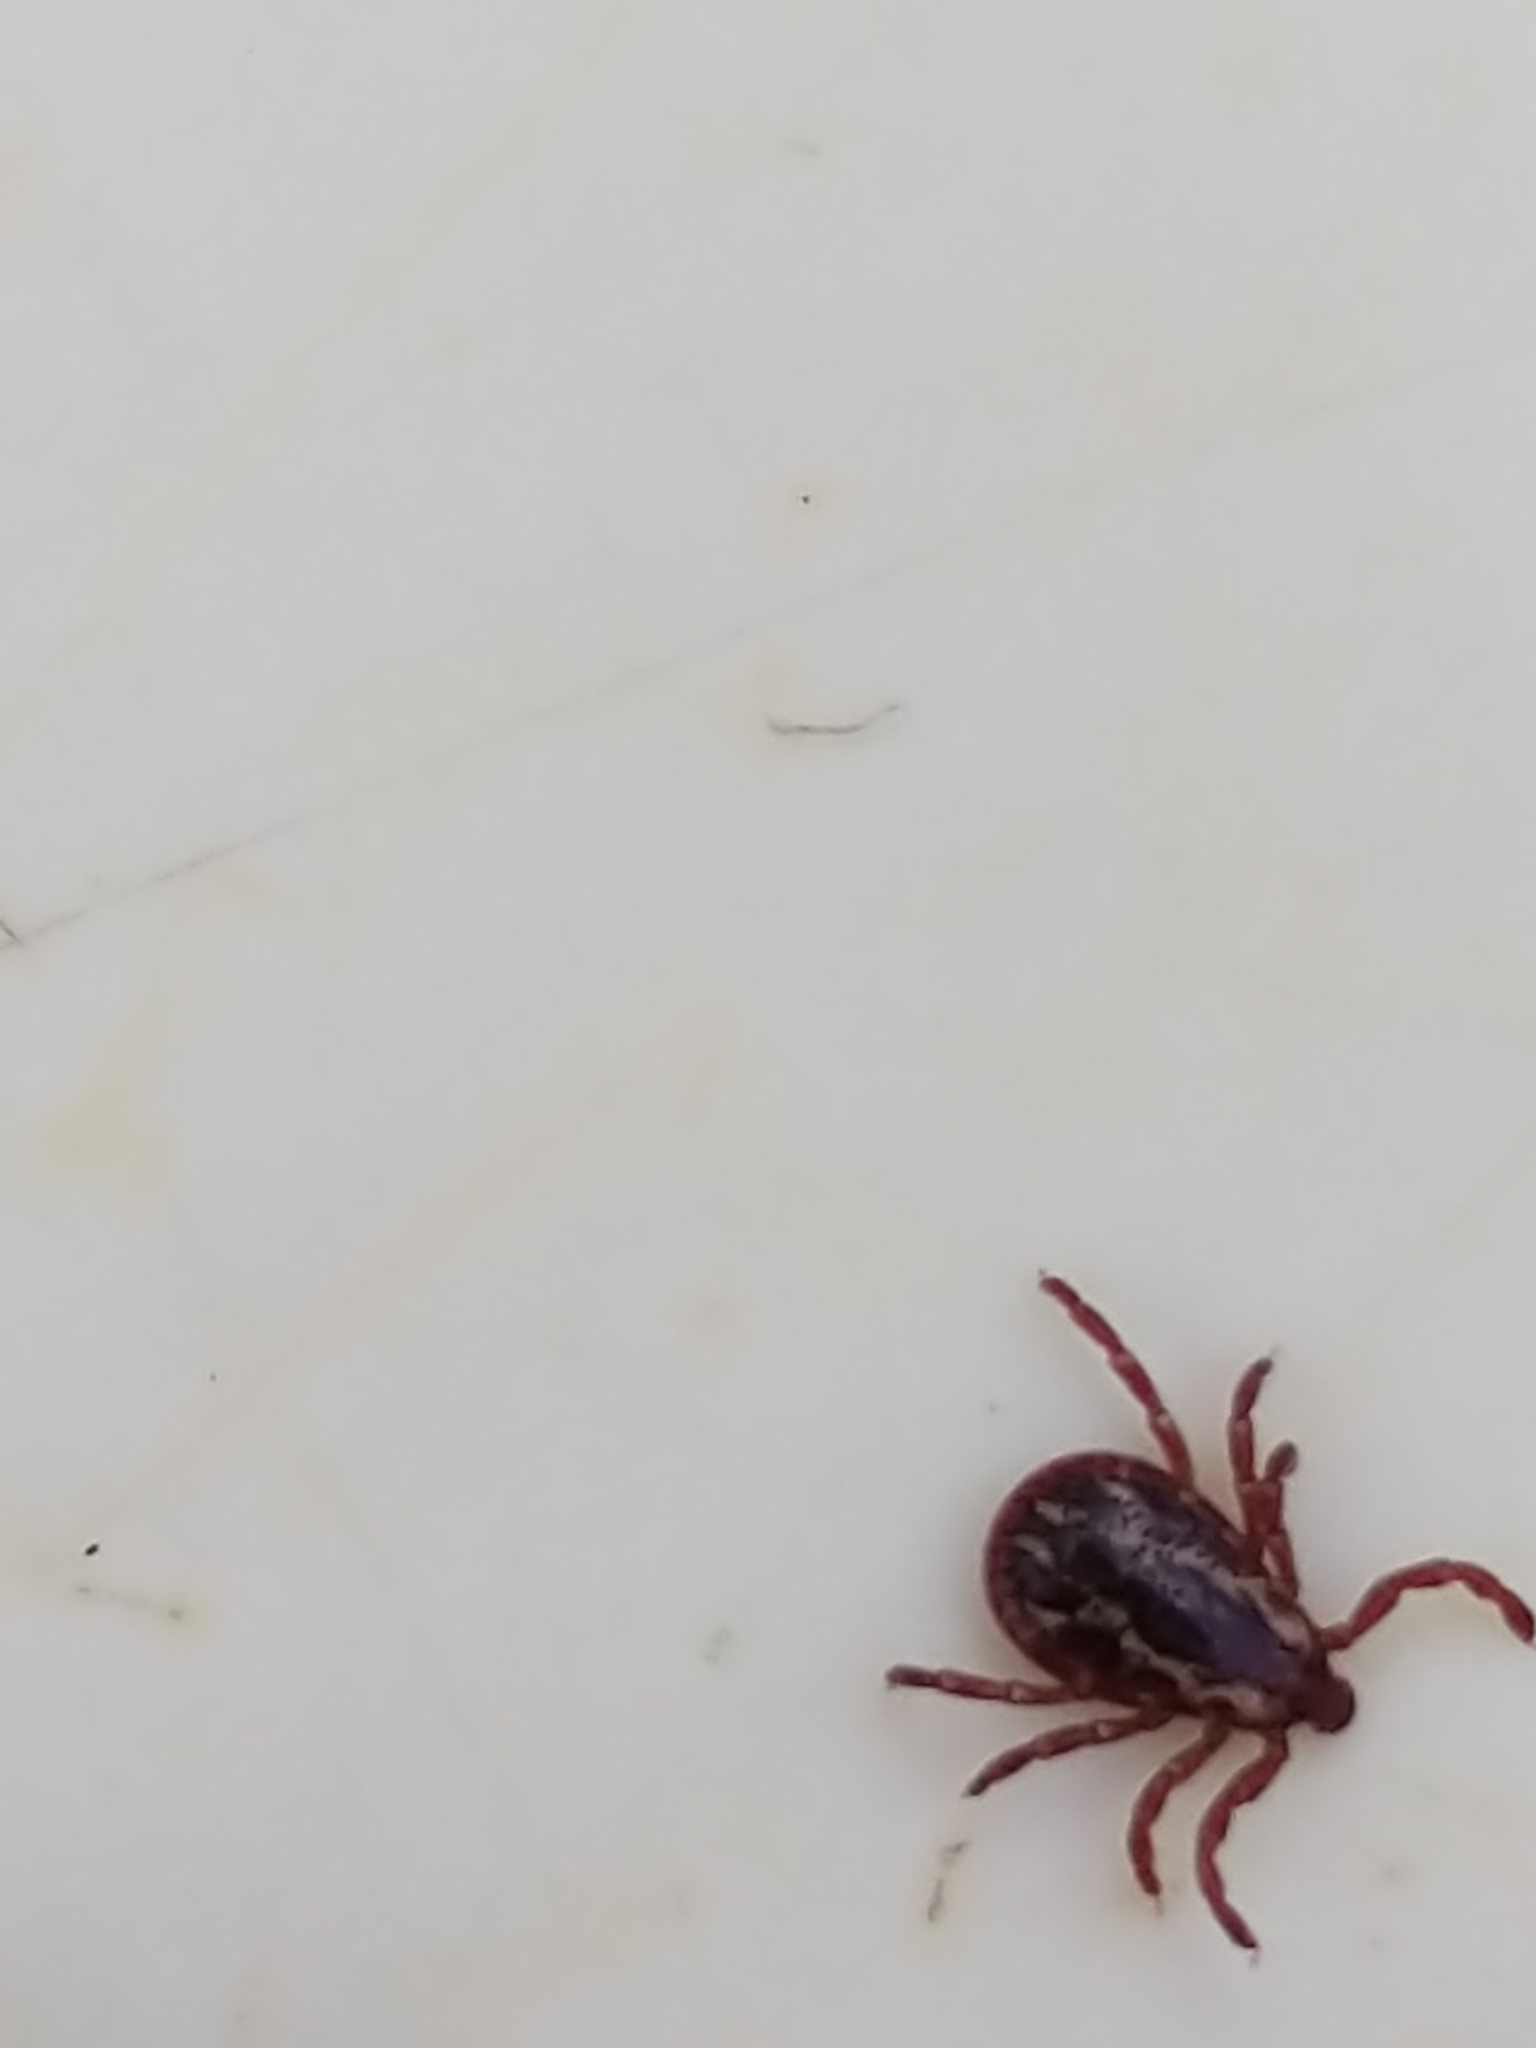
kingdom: Animalia
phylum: Arthropoda
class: Arachnida
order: Ixodida
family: Ixodidae
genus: Dermacentor
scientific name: Dermacentor variabilis
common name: American dog tick
